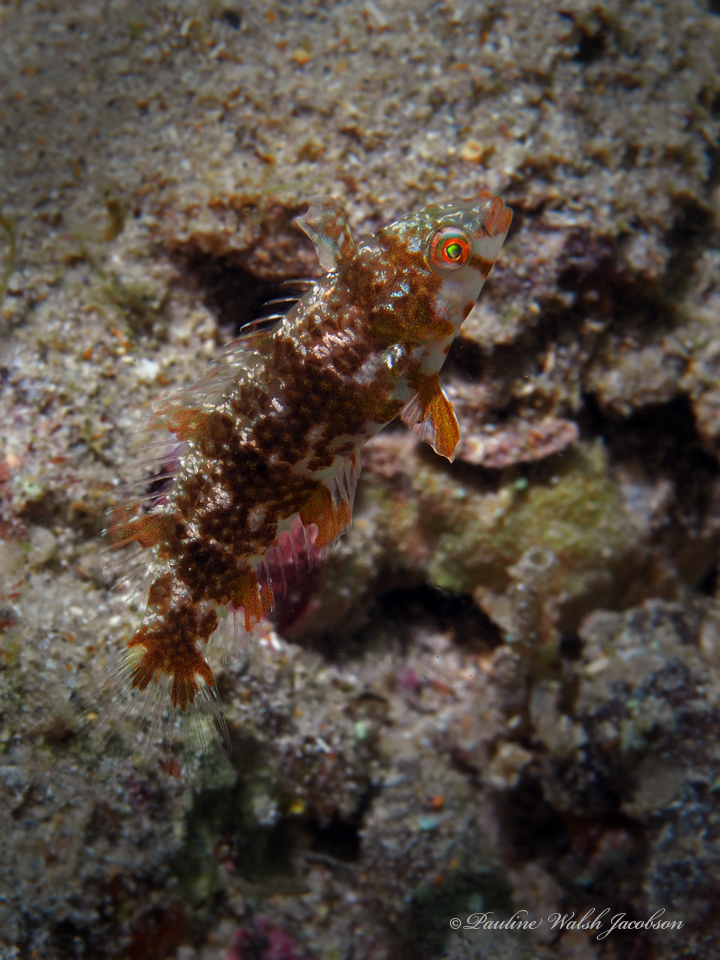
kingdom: Animalia
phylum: Chordata
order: Perciformes
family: Labridae
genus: Xyrichtys
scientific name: Xyrichtys splendens
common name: Green razorfish
